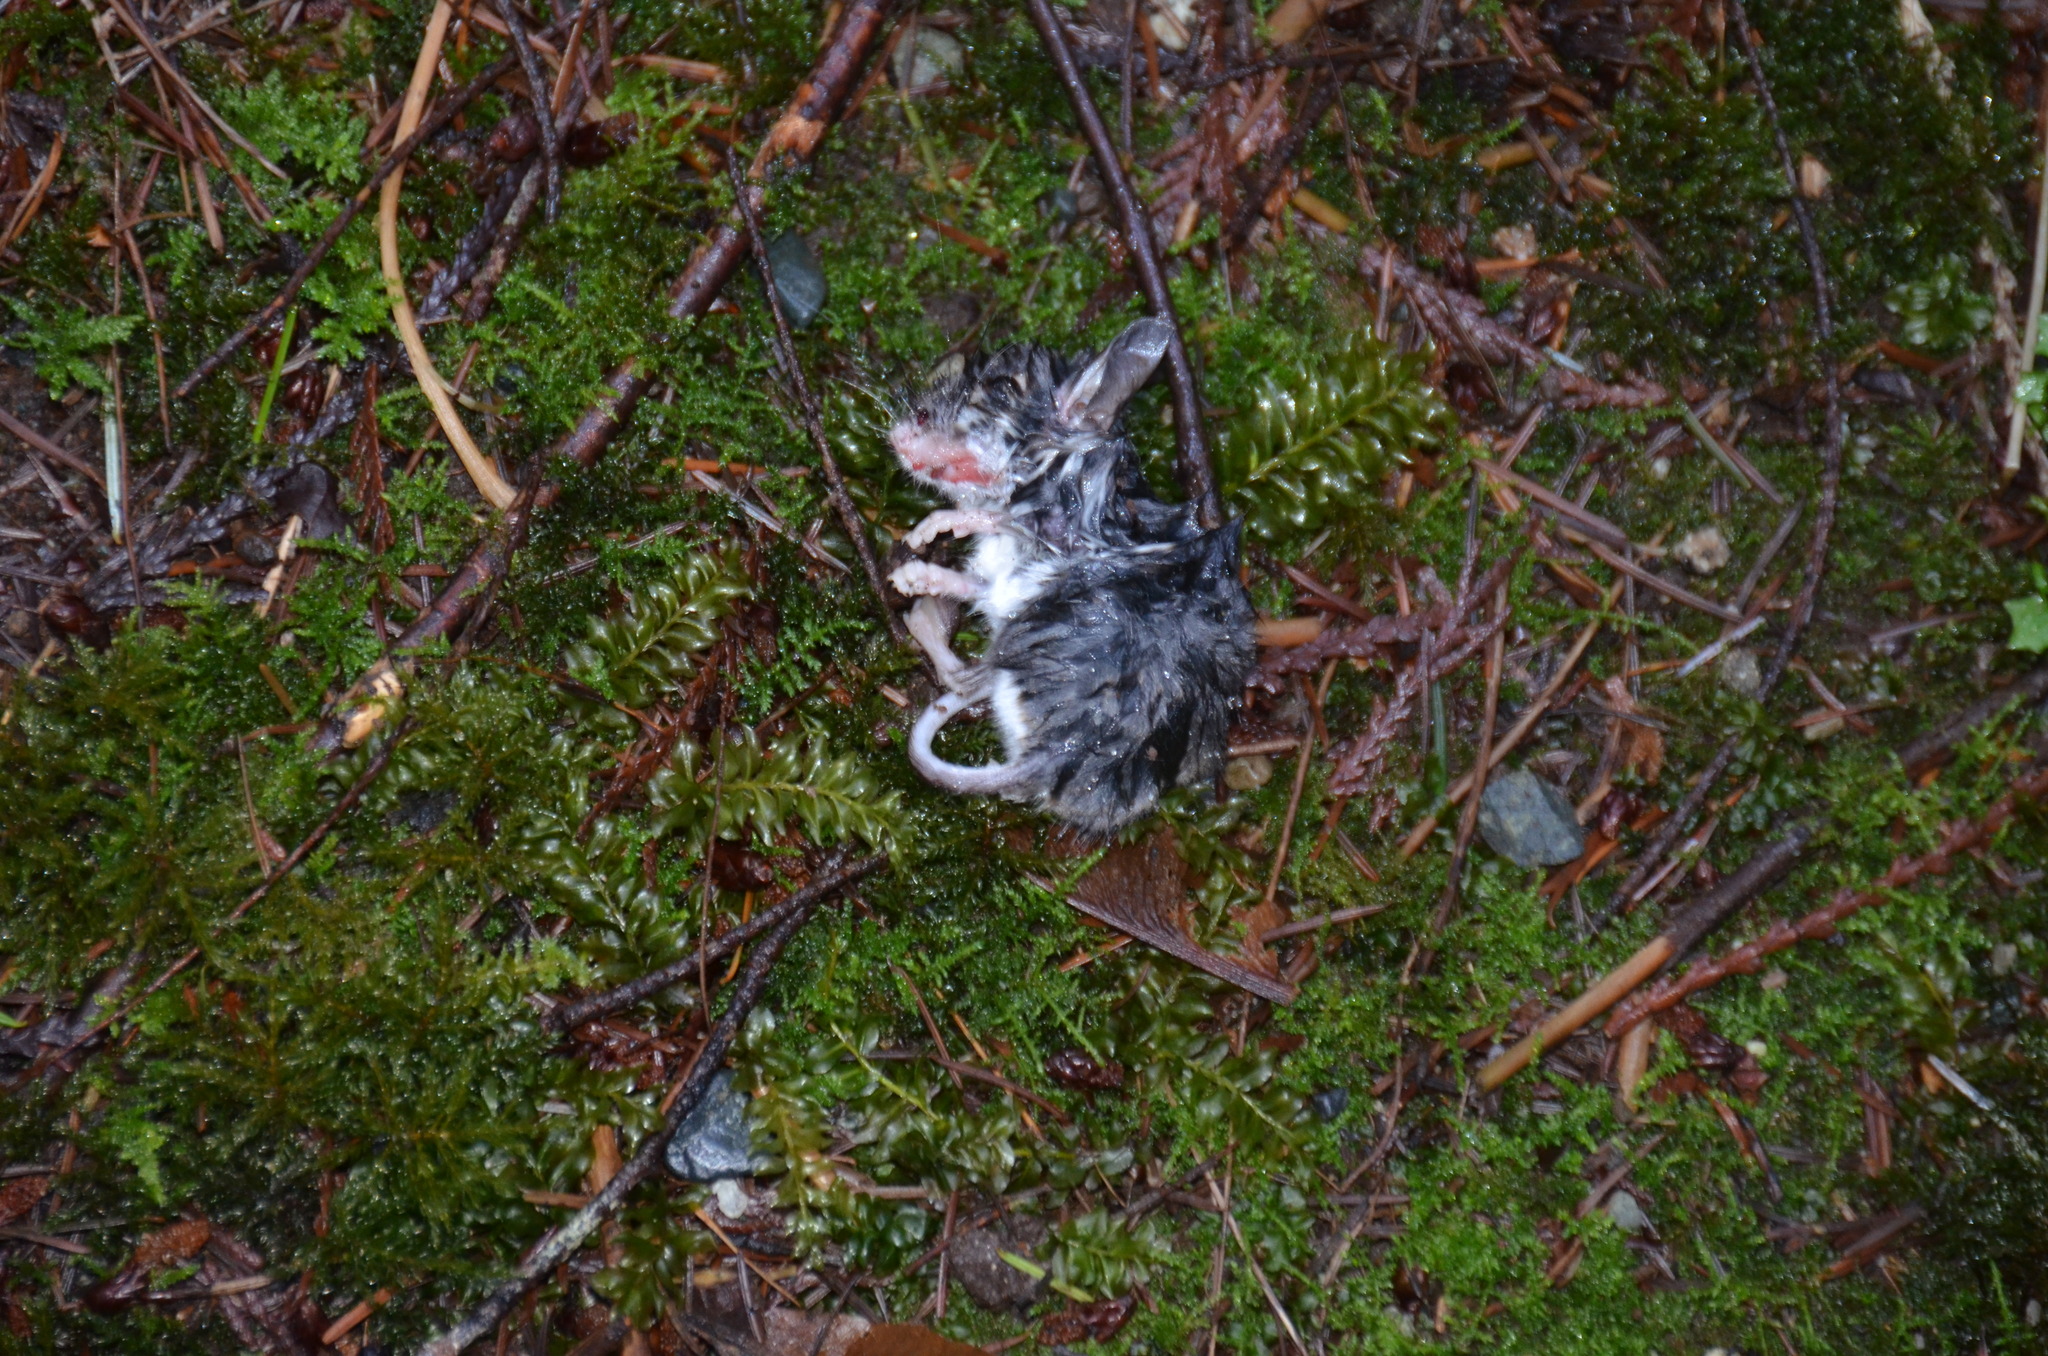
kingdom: Animalia
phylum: Chordata
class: Mammalia
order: Rodentia
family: Cricetidae
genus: Peromyscus
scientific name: Peromyscus maniculatus
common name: Deer mouse
